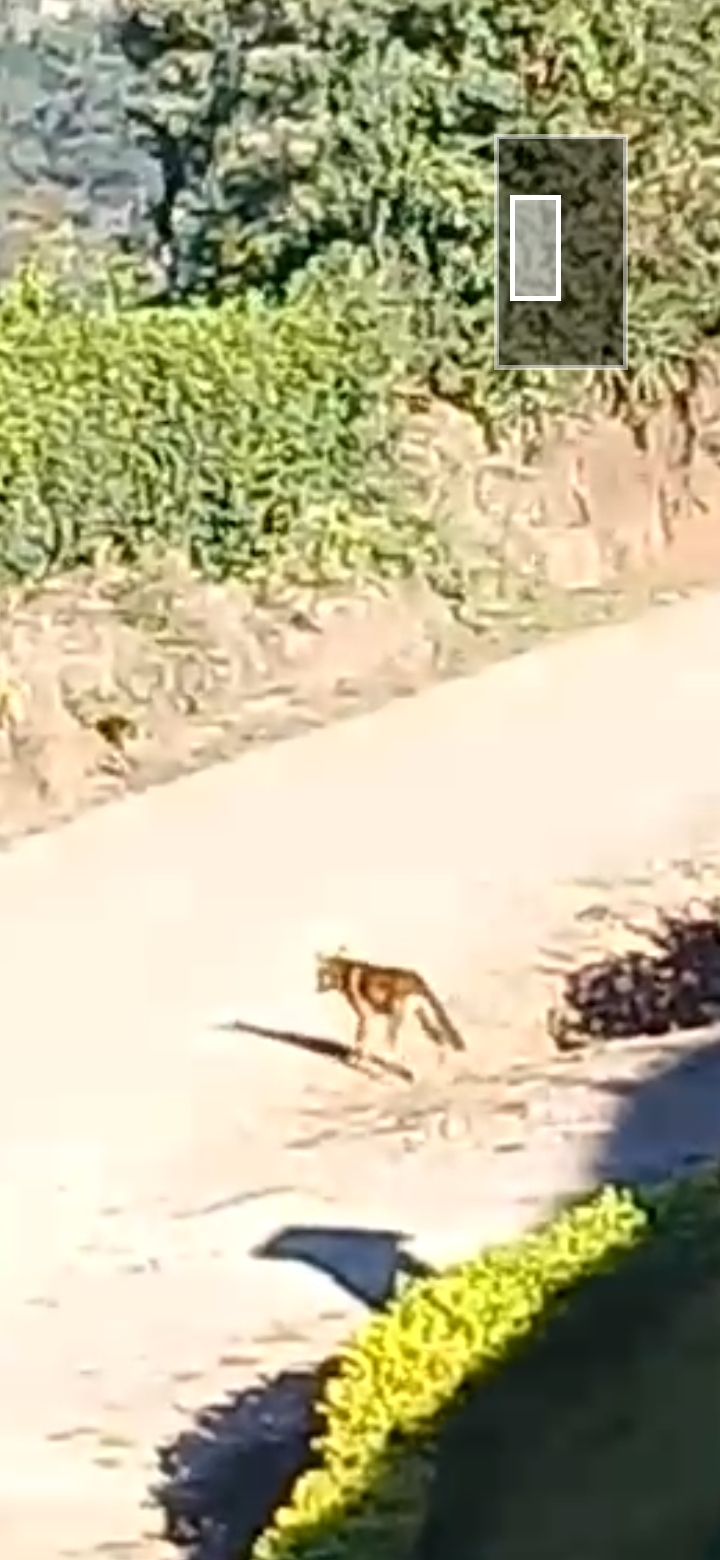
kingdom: Animalia
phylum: Chordata
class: Mammalia
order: Carnivora
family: Canidae
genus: Canis
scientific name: Canis latrans
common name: Coyote
